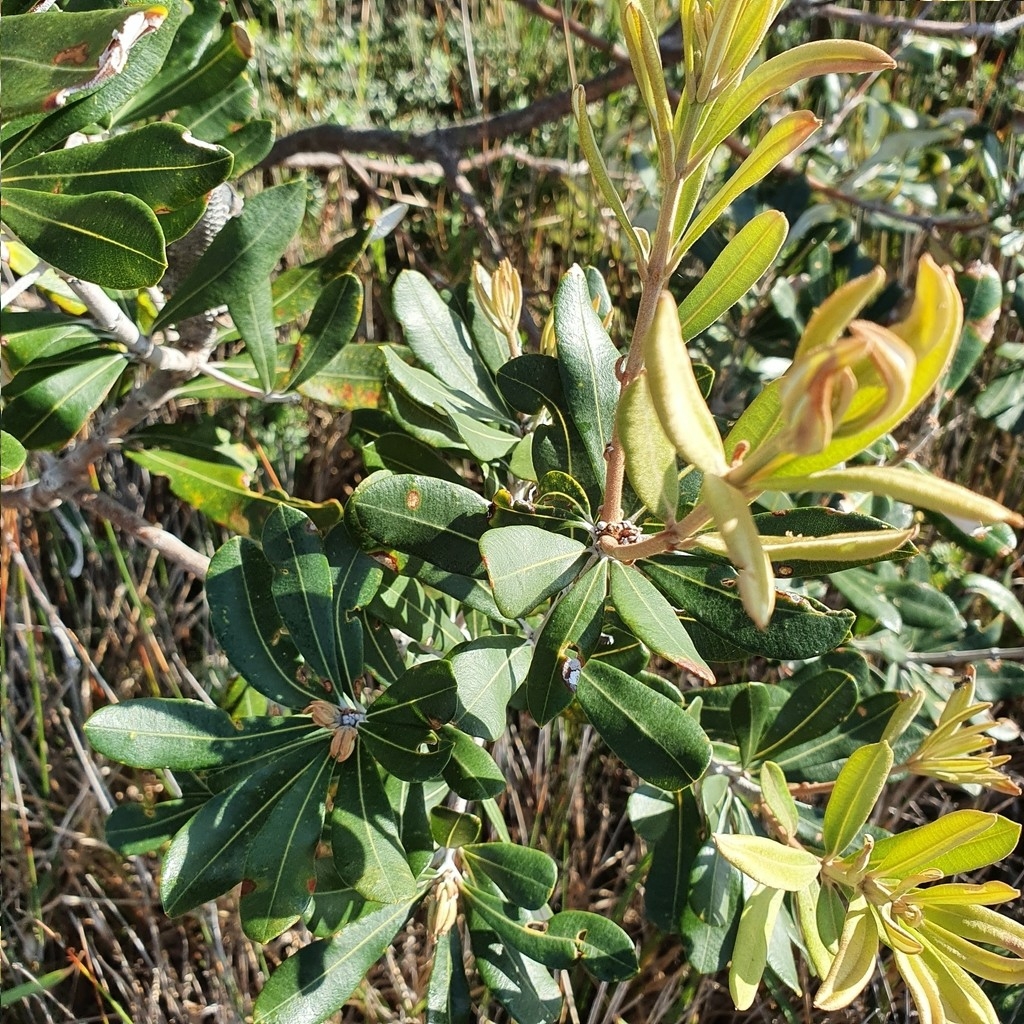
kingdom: Plantae
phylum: Tracheophyta
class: Magnoliopsida
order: Proteales
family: Proteaceae
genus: Banksia
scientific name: Banksia integrifolia
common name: White-honeysuckle
